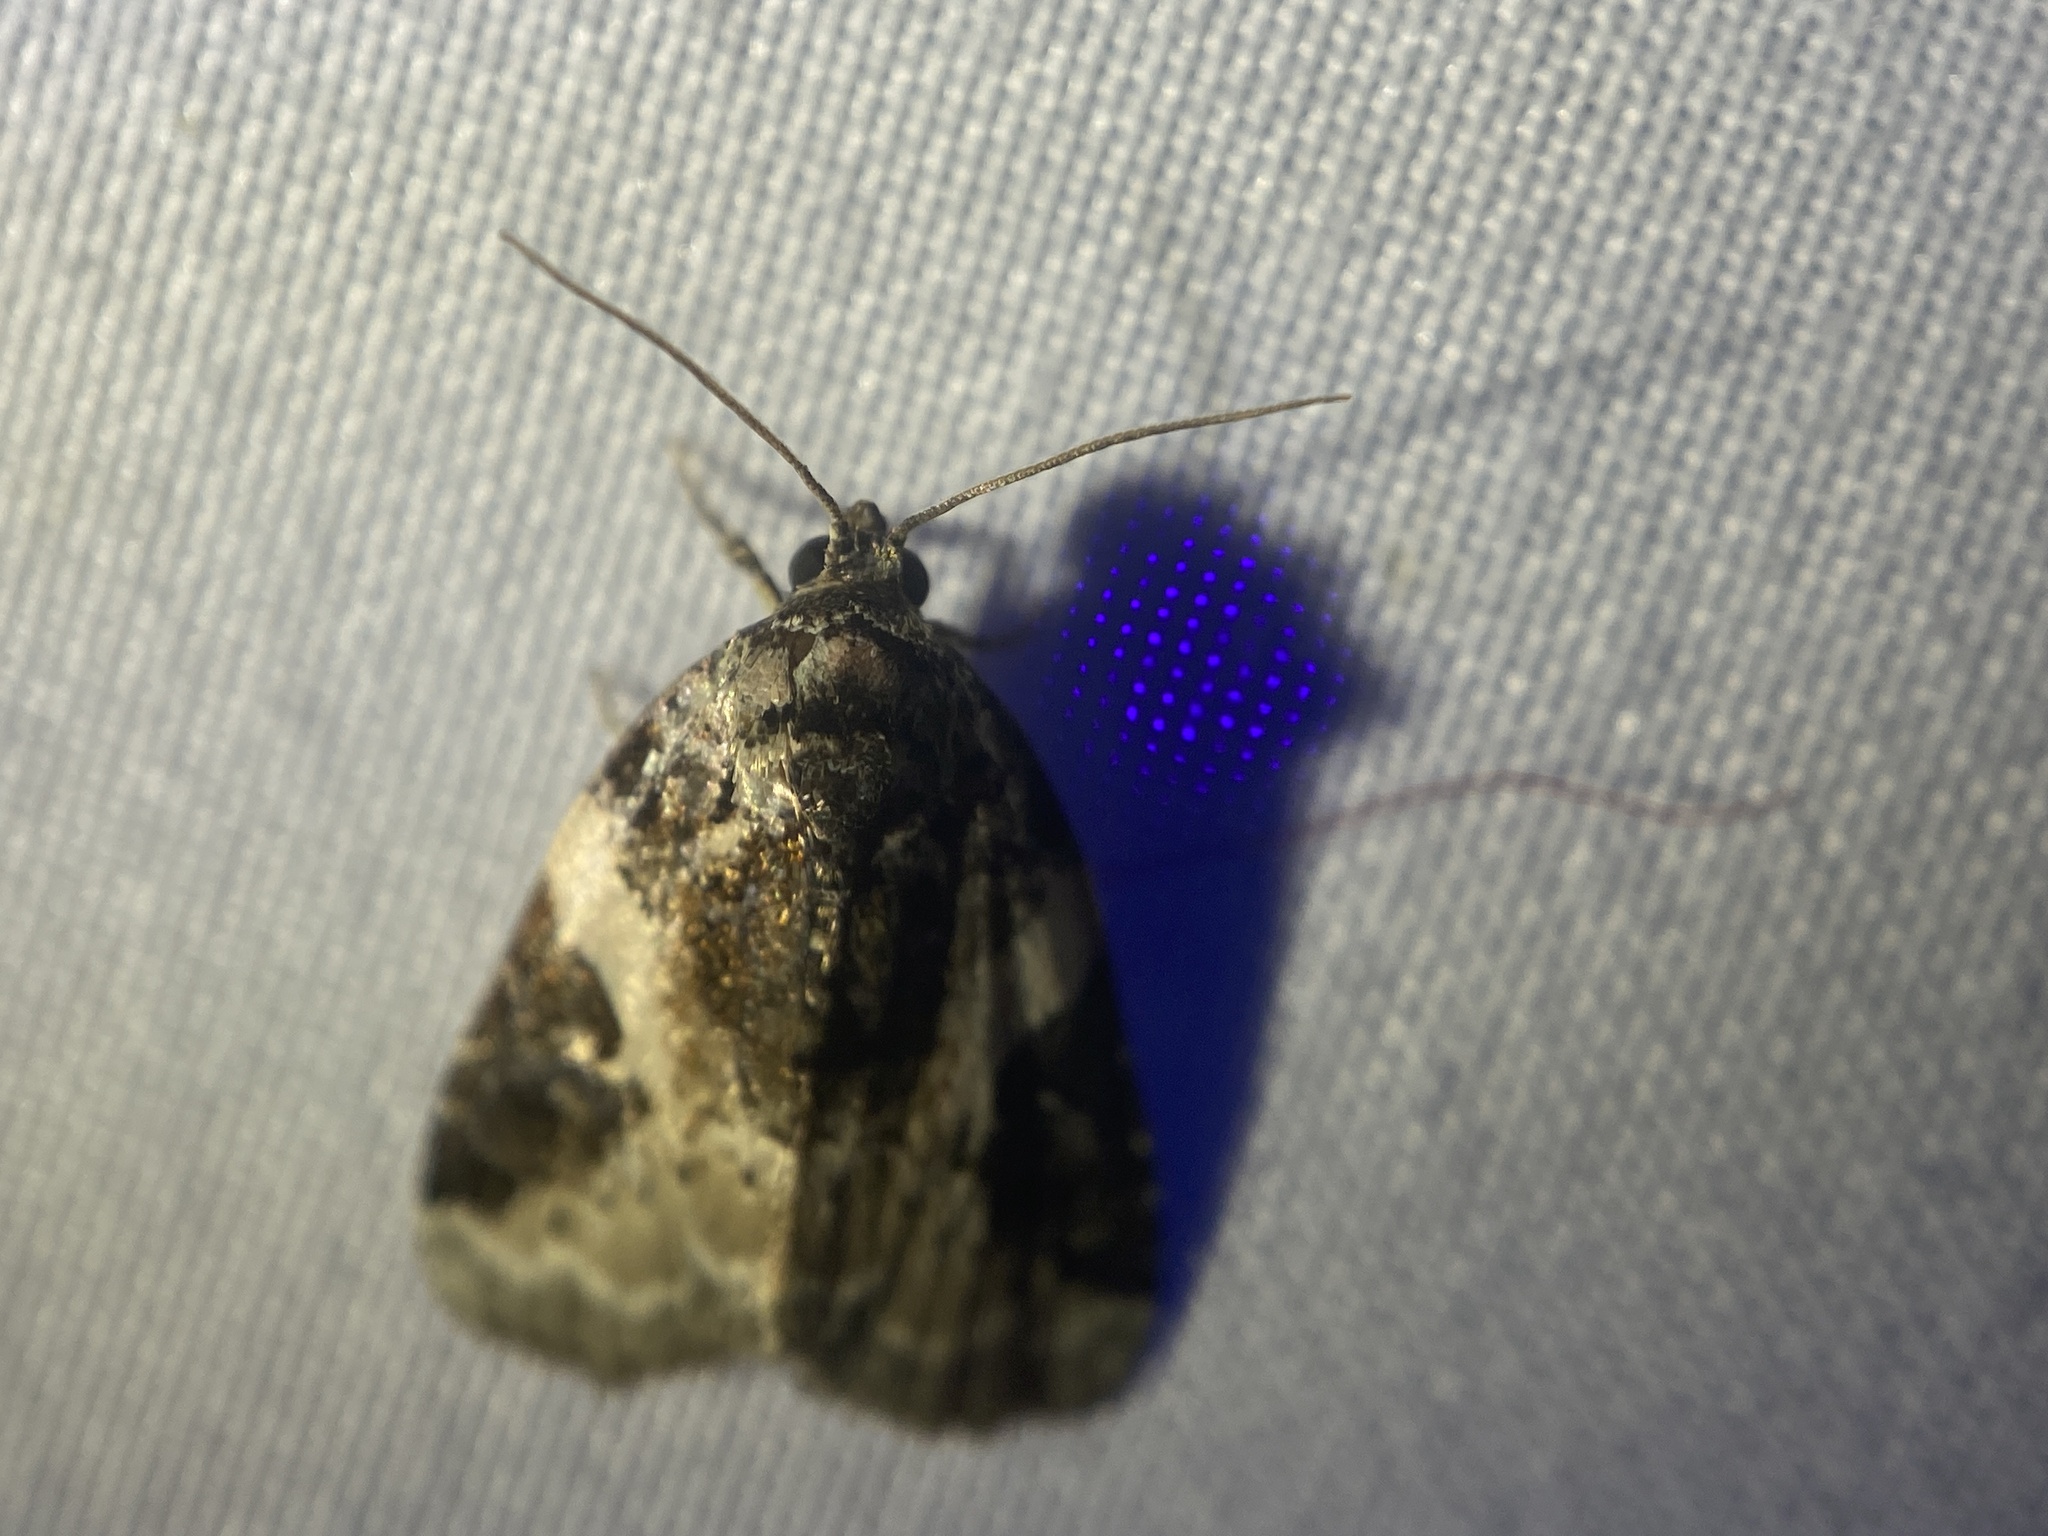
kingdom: Animalia
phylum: Arthropoda
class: Insecta
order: Lepidoptera
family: Noctuidae
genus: Pseudeustrotia
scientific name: Pseudeustrotia carneola
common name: Pink-barred lithacodia moth
